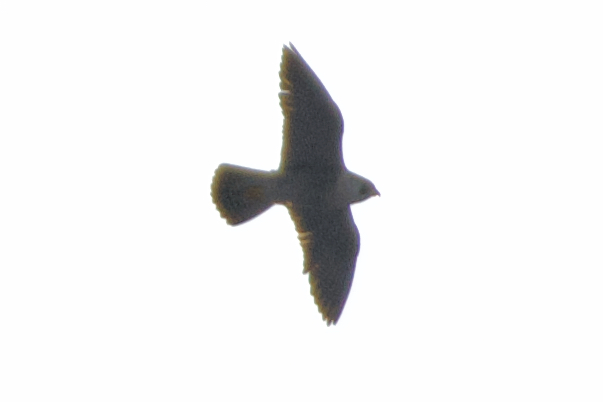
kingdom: Animalia
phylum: Chordata
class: Aves
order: Falconiformes
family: Falconidae
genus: Falco
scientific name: Falco peregrinus
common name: Peregrine falcon
